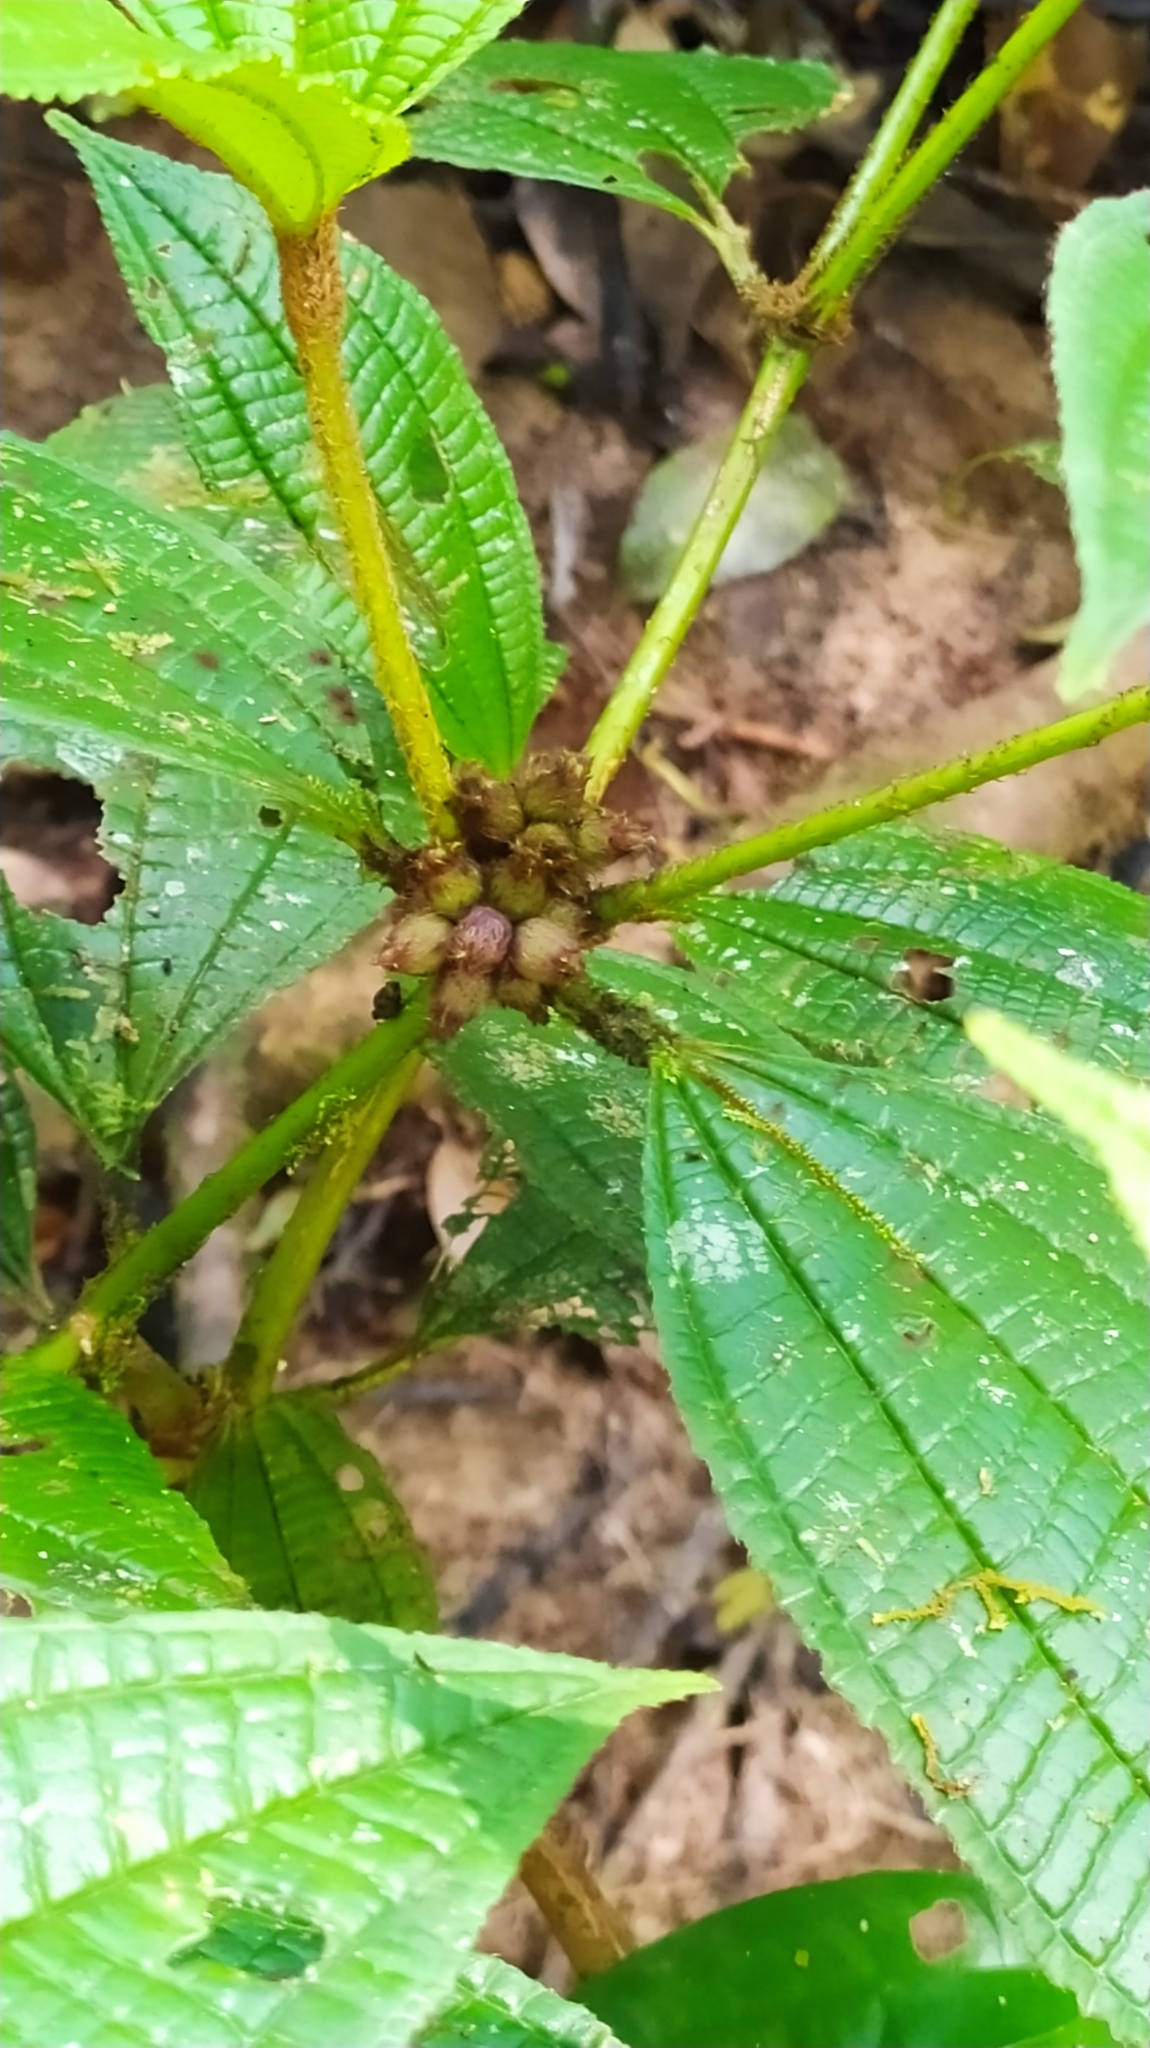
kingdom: Plantae
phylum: Tracheophyta
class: Magnoliopsida
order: Myrtales
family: Melastomataceae
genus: Miconia
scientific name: Miconia conglomerata
